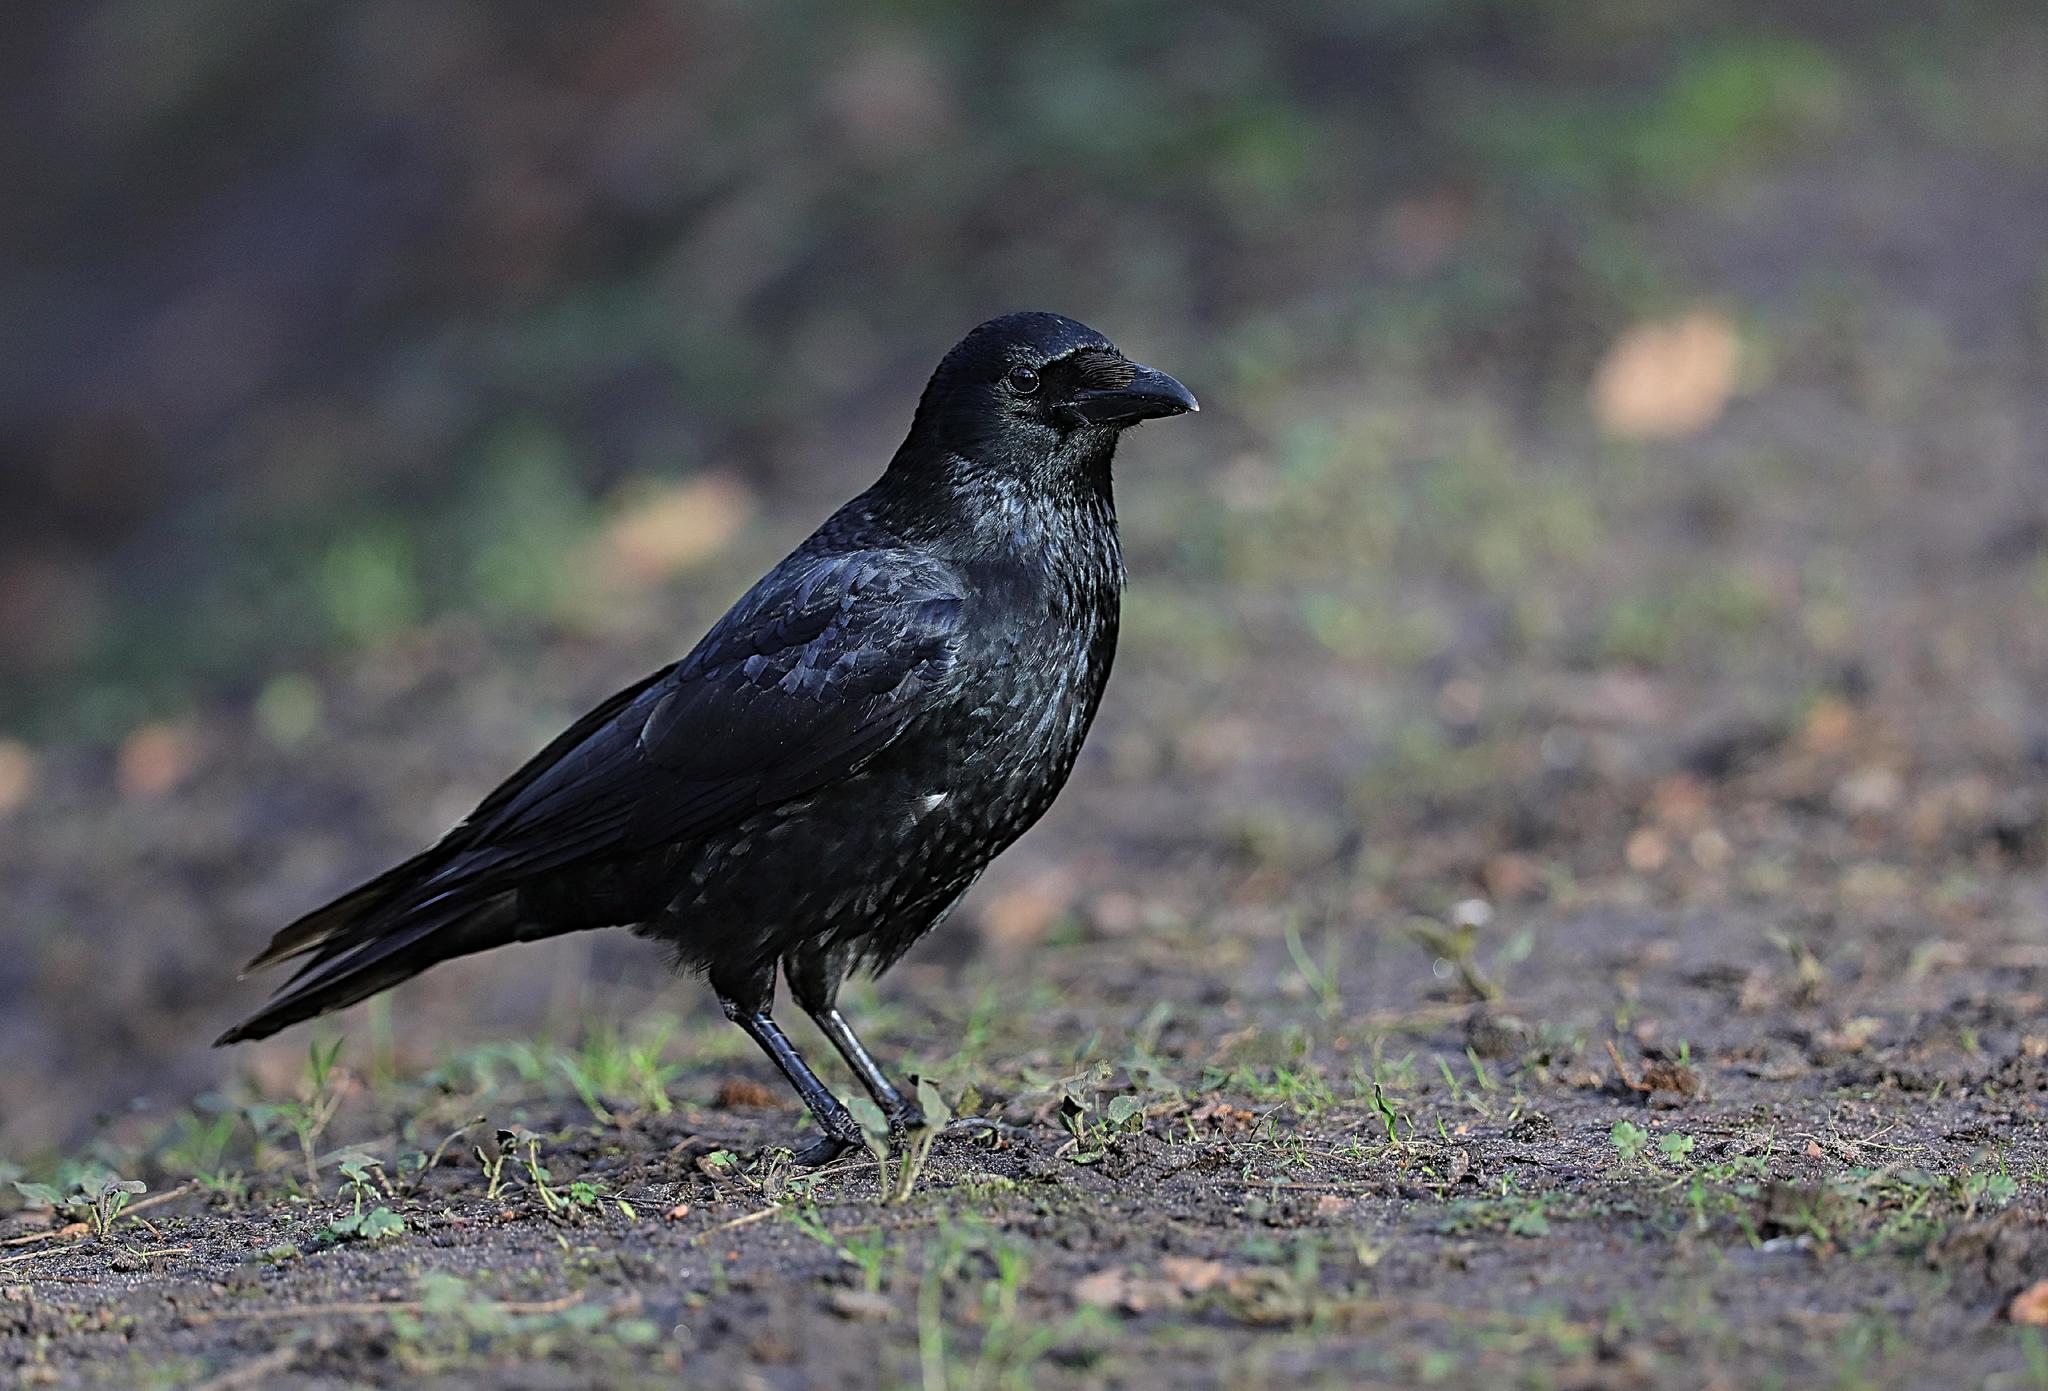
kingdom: Animalia
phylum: Chordata
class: Aves
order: Passeriformes
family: Corvidae
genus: Corvus
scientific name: Corvus corone
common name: Carrion crow
